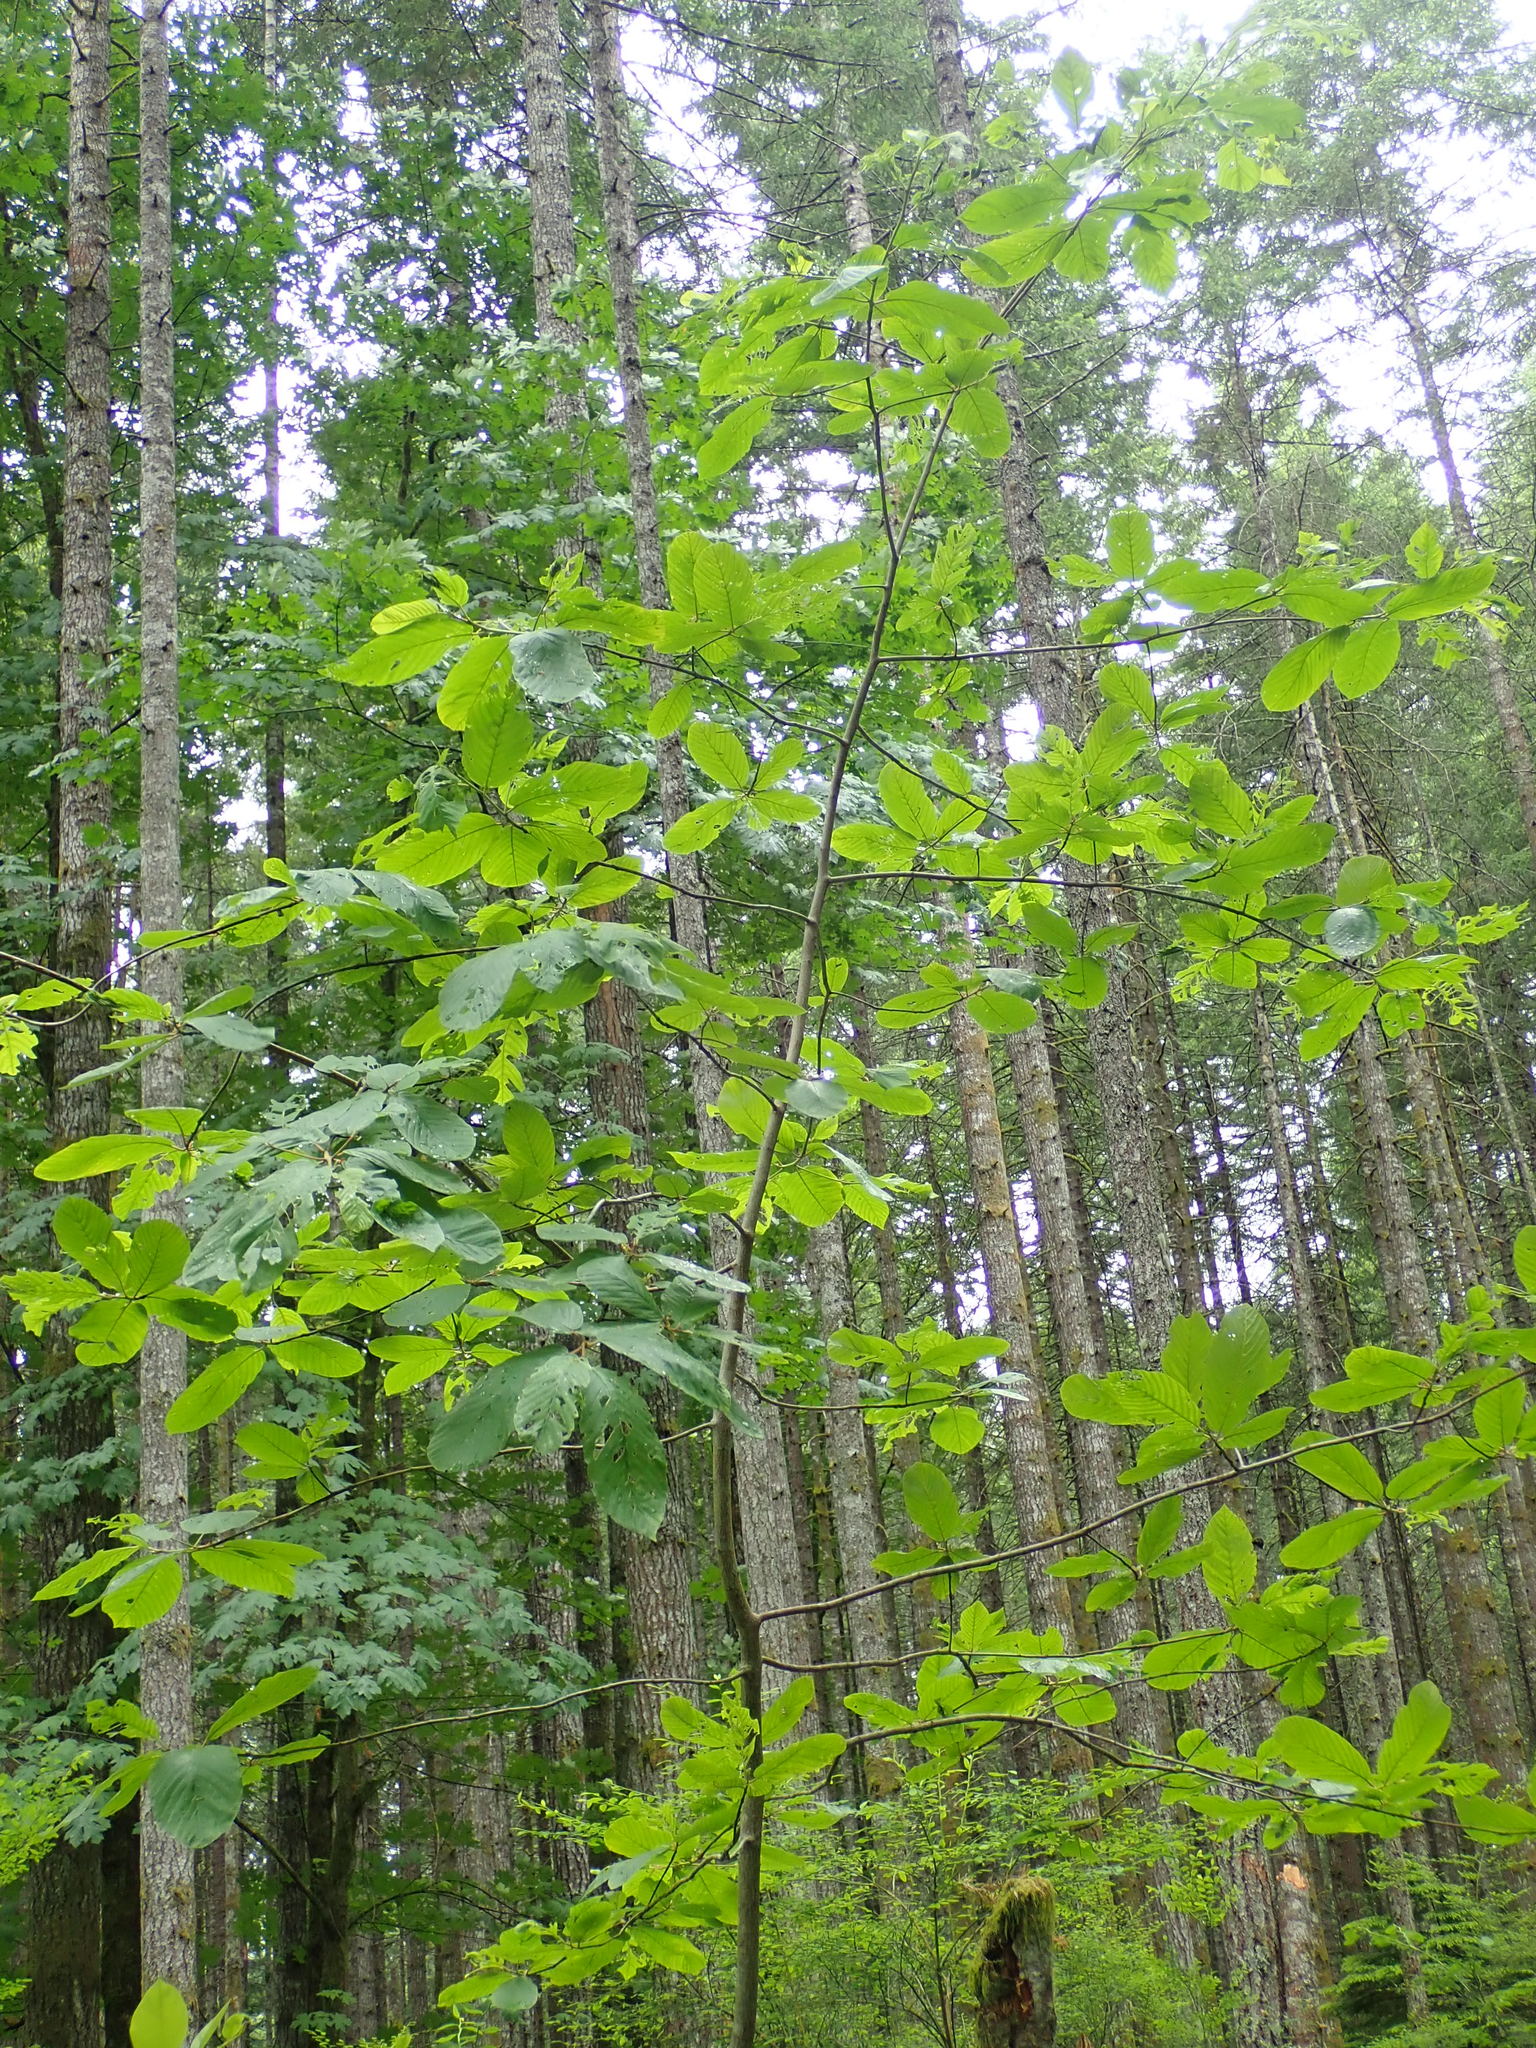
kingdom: Plantae
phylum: Tracheophyta
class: Magnoliopsida
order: Rosales
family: Rhamnaceae
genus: Frangula
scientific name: Frangula purshiana
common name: Cascara buckthorn
